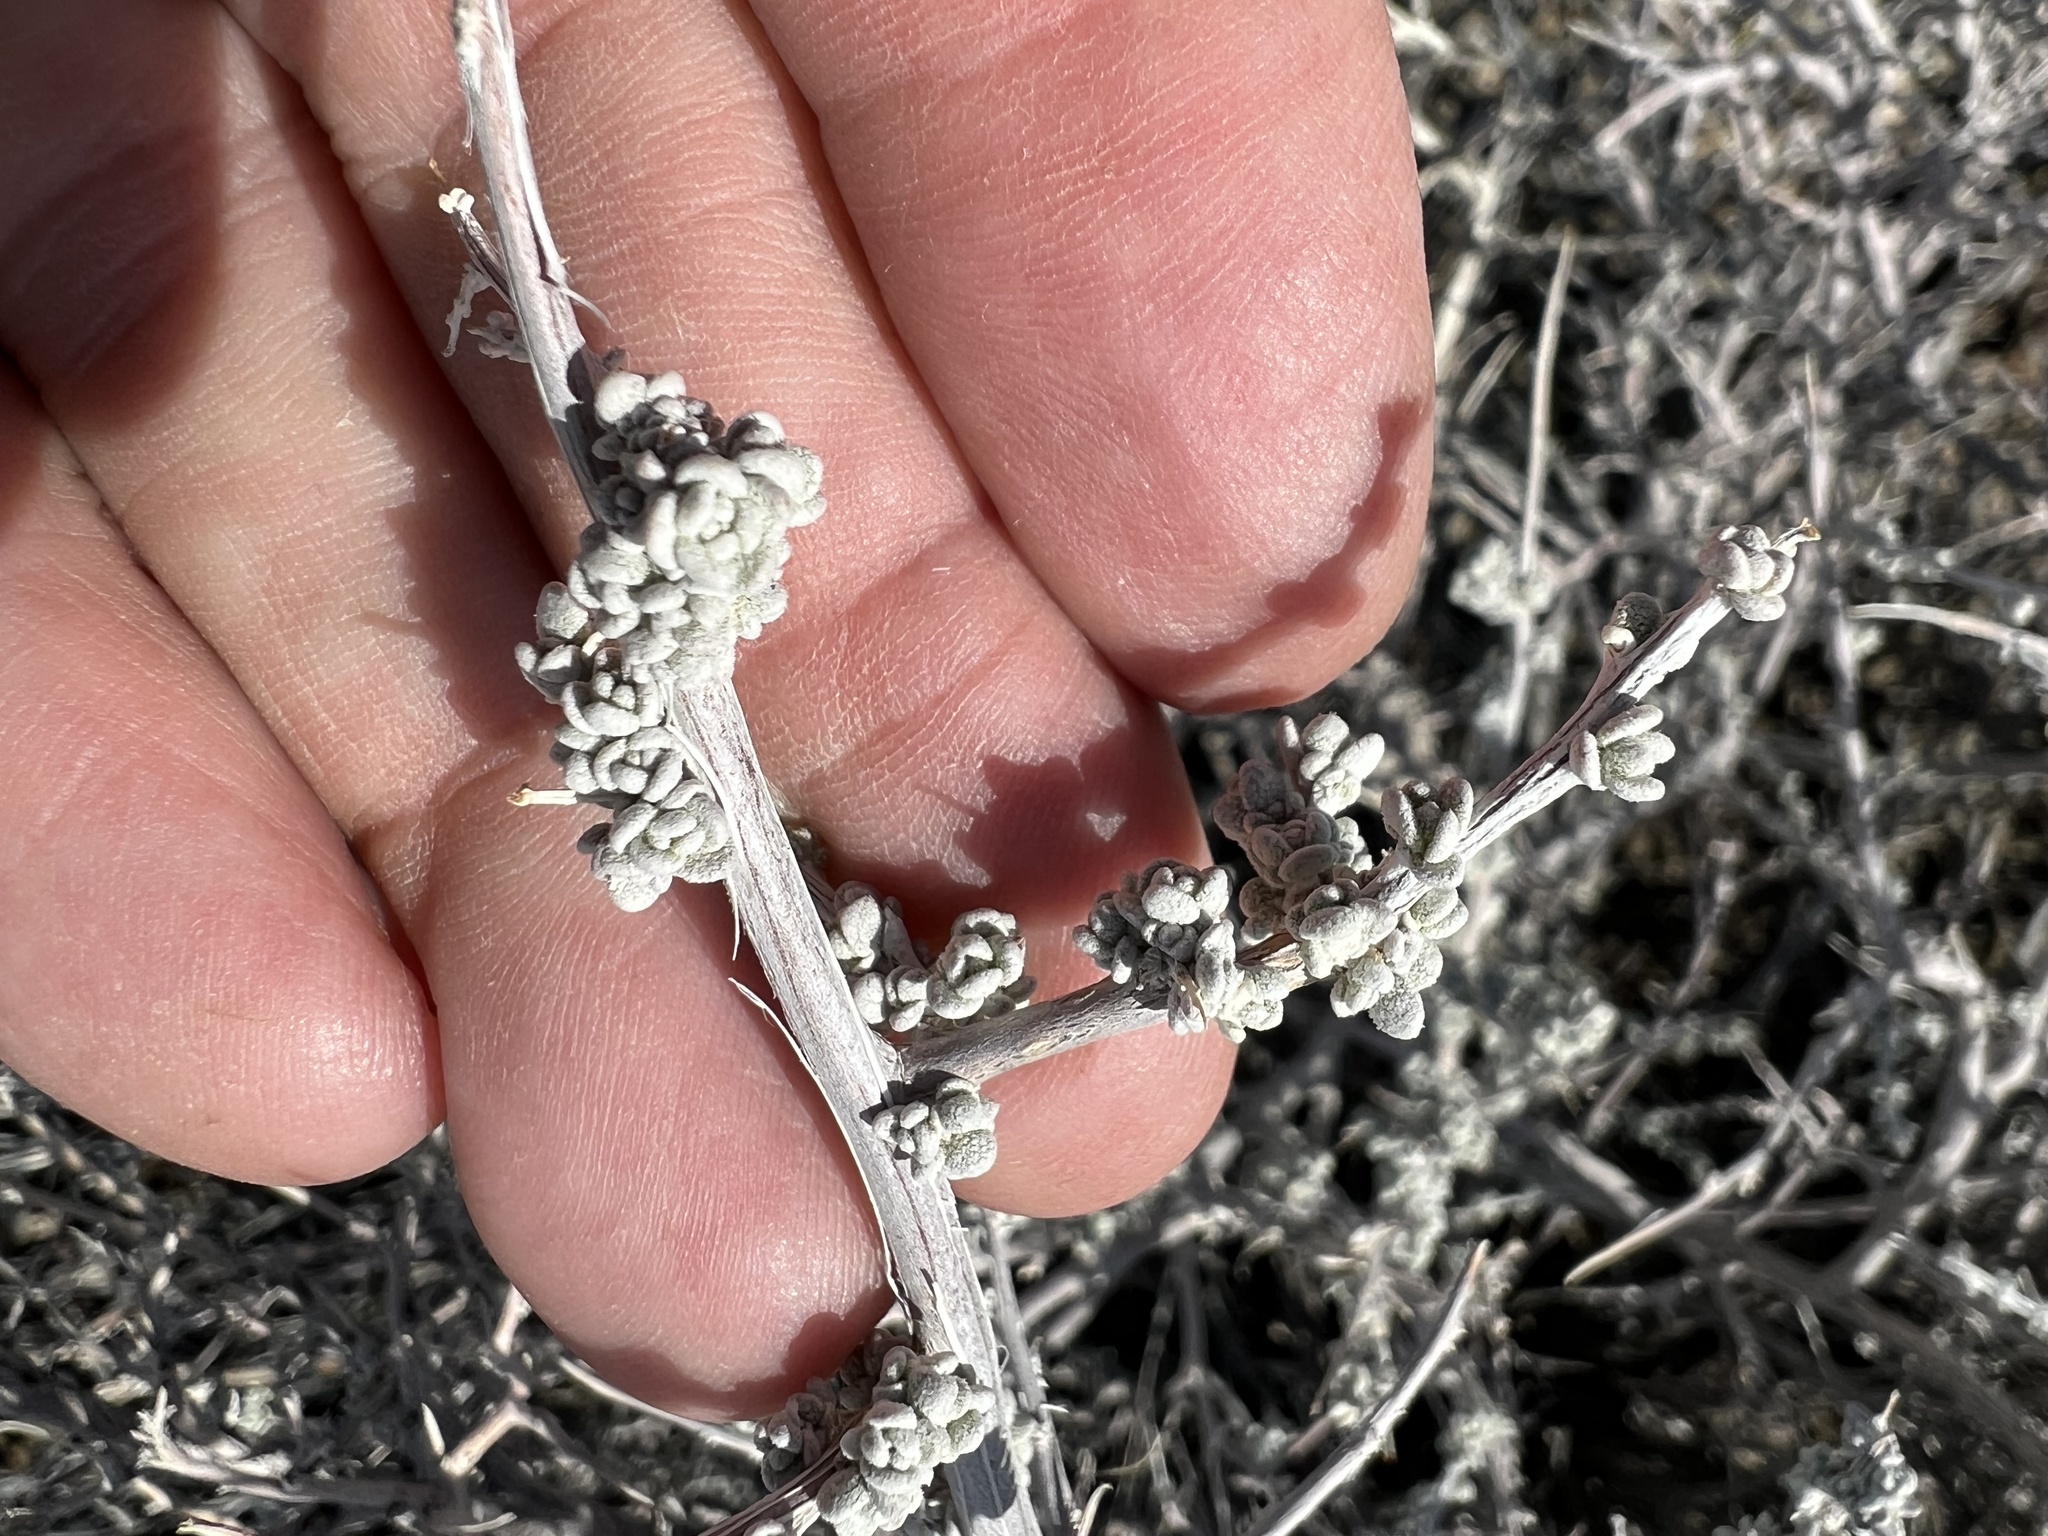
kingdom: Plantae
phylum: Tracheophyta
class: Magnoliopsida
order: Caryophyllales
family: Amaranthaceae
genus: Grayia
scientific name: Grayia spinosa
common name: Spiny hopsage
